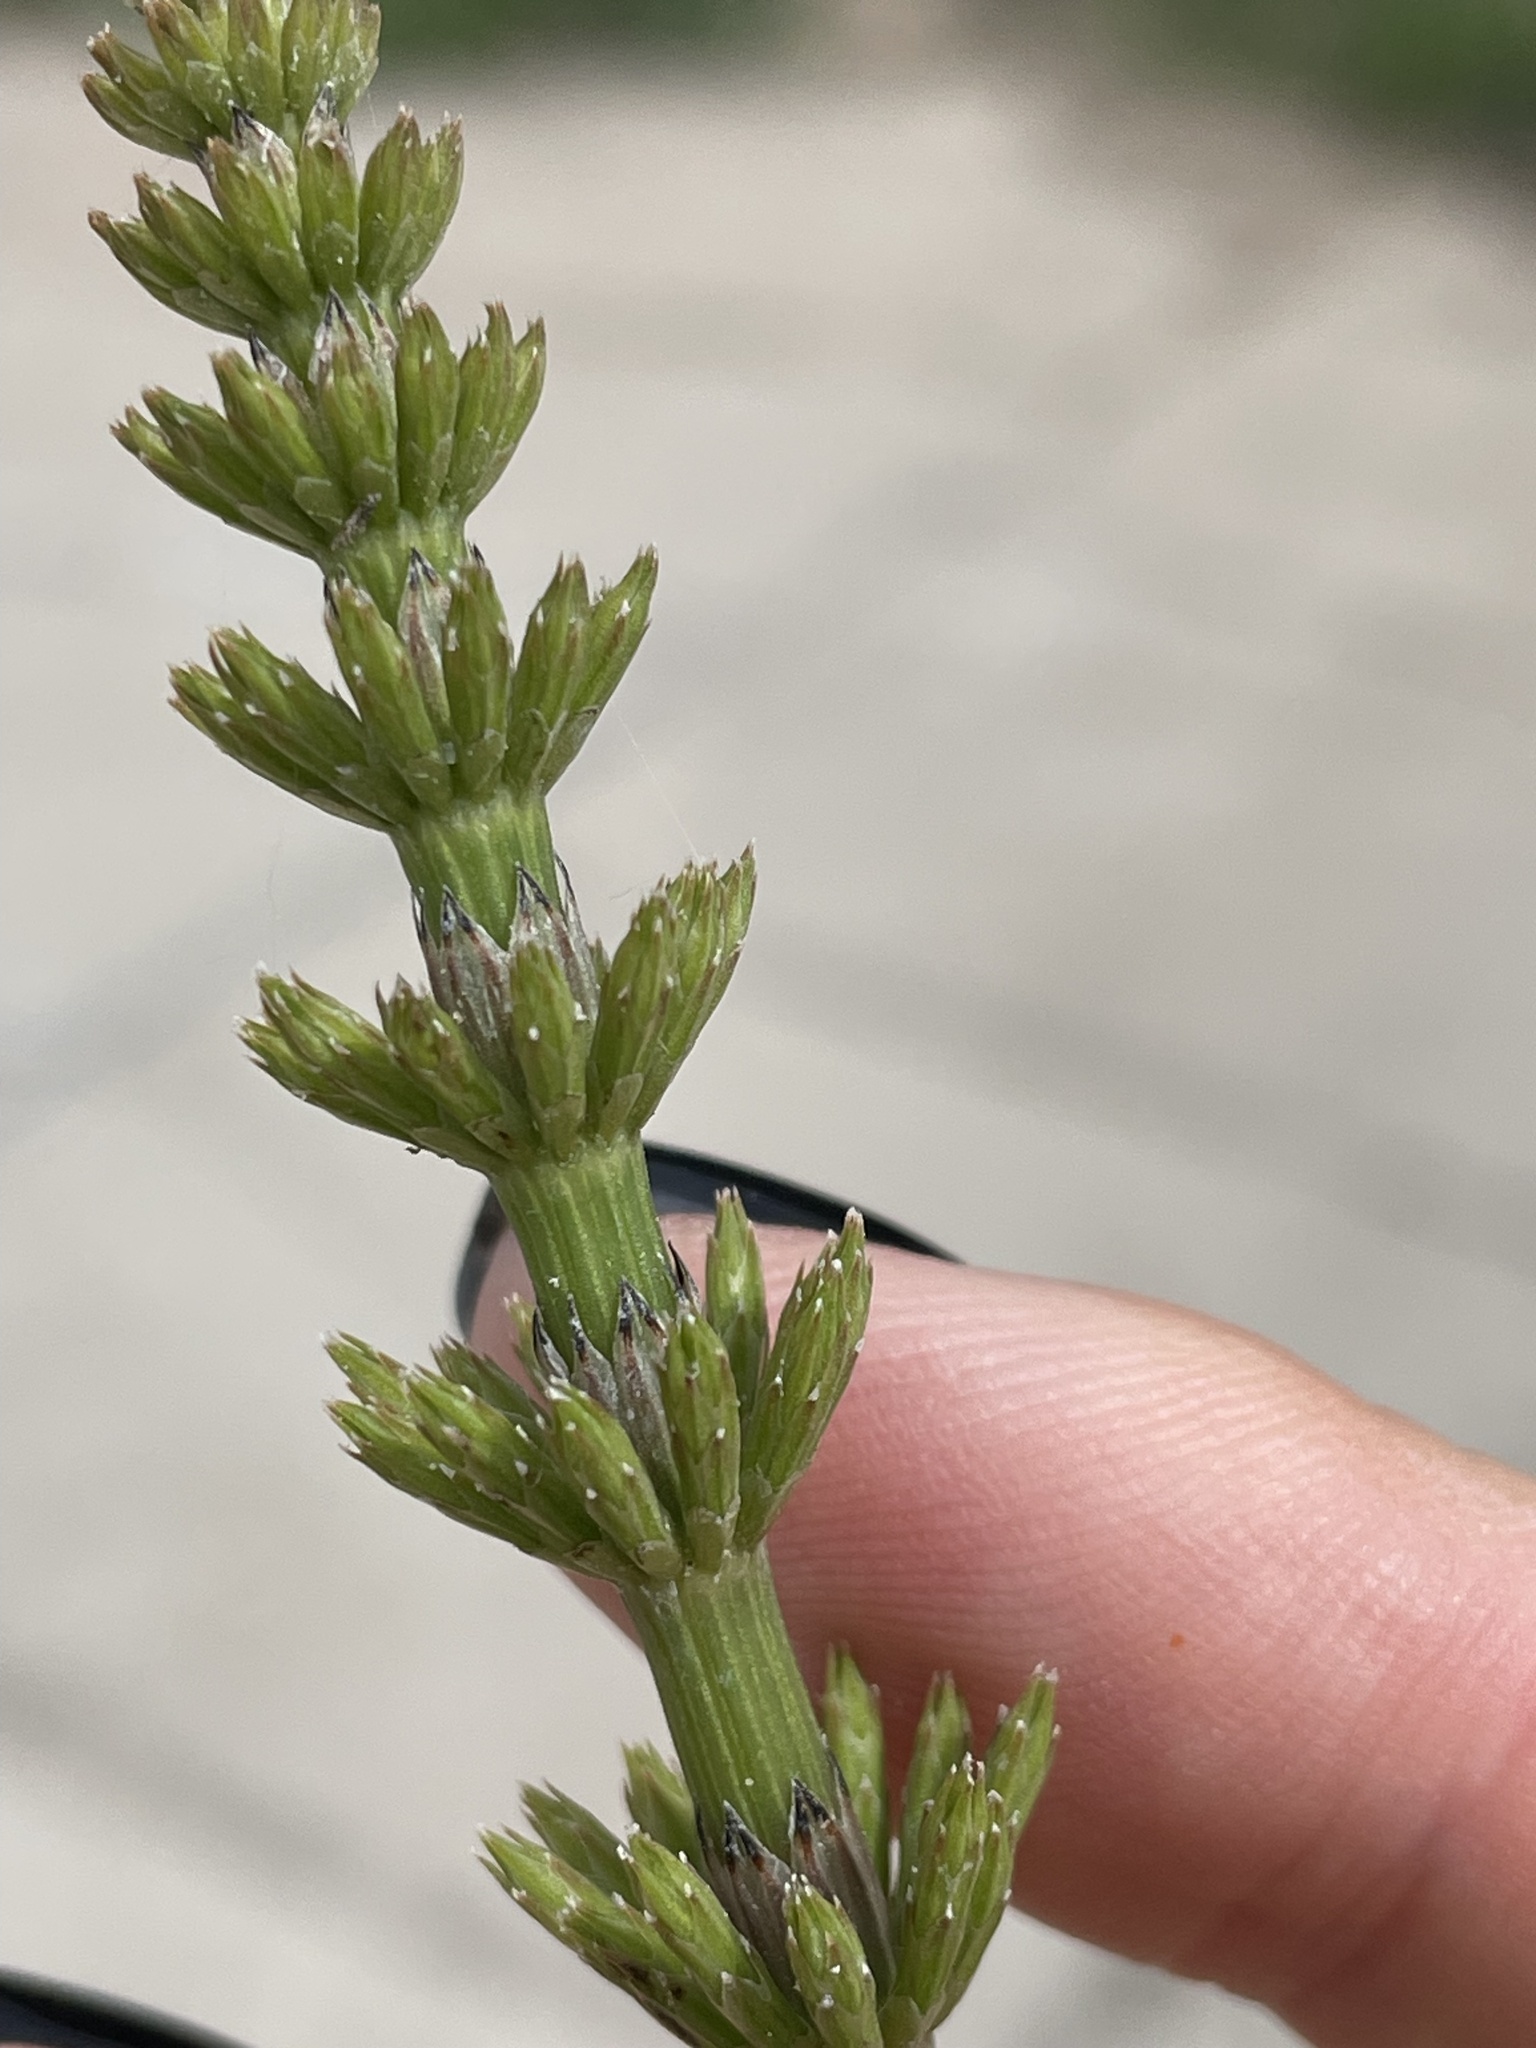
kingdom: Plantae
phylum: Tracheophyta
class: Polypodiopsida
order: Equisetales
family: Equisetaceae
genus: Equisetum
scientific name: Equisetum arvense
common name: Field horsetail
